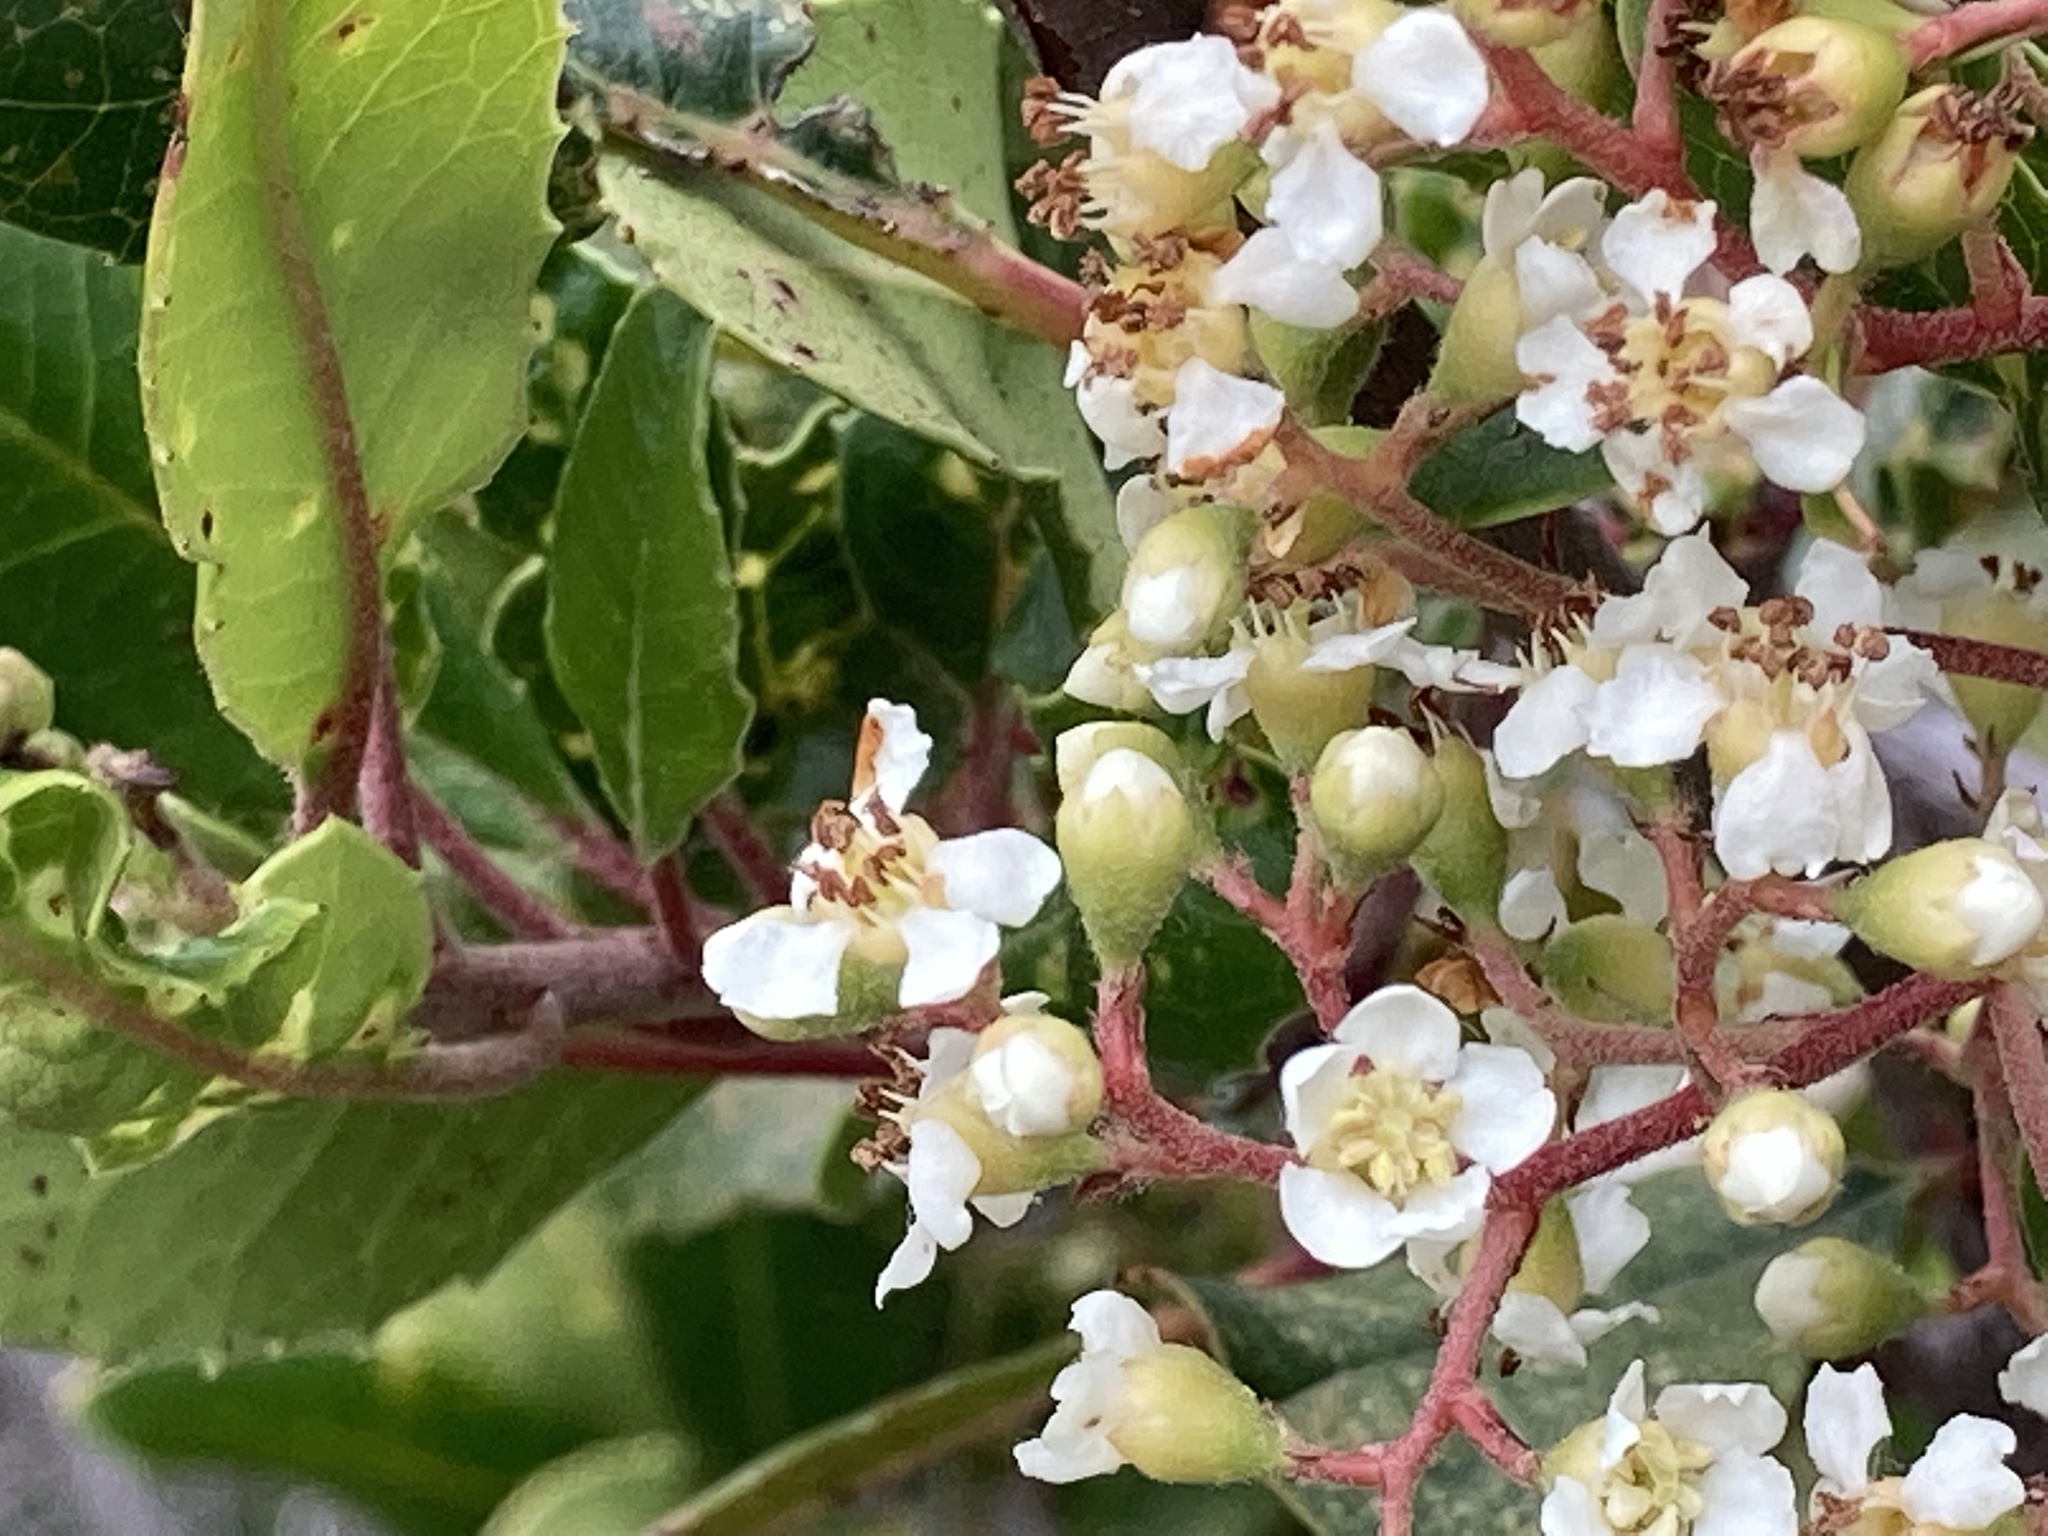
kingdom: Plantae
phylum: Tracheophyta
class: Magnoliopsida
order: Rosales
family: Rosaceae
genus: Heteromeles
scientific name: Heteromeles arbutifolia
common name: California-holly
